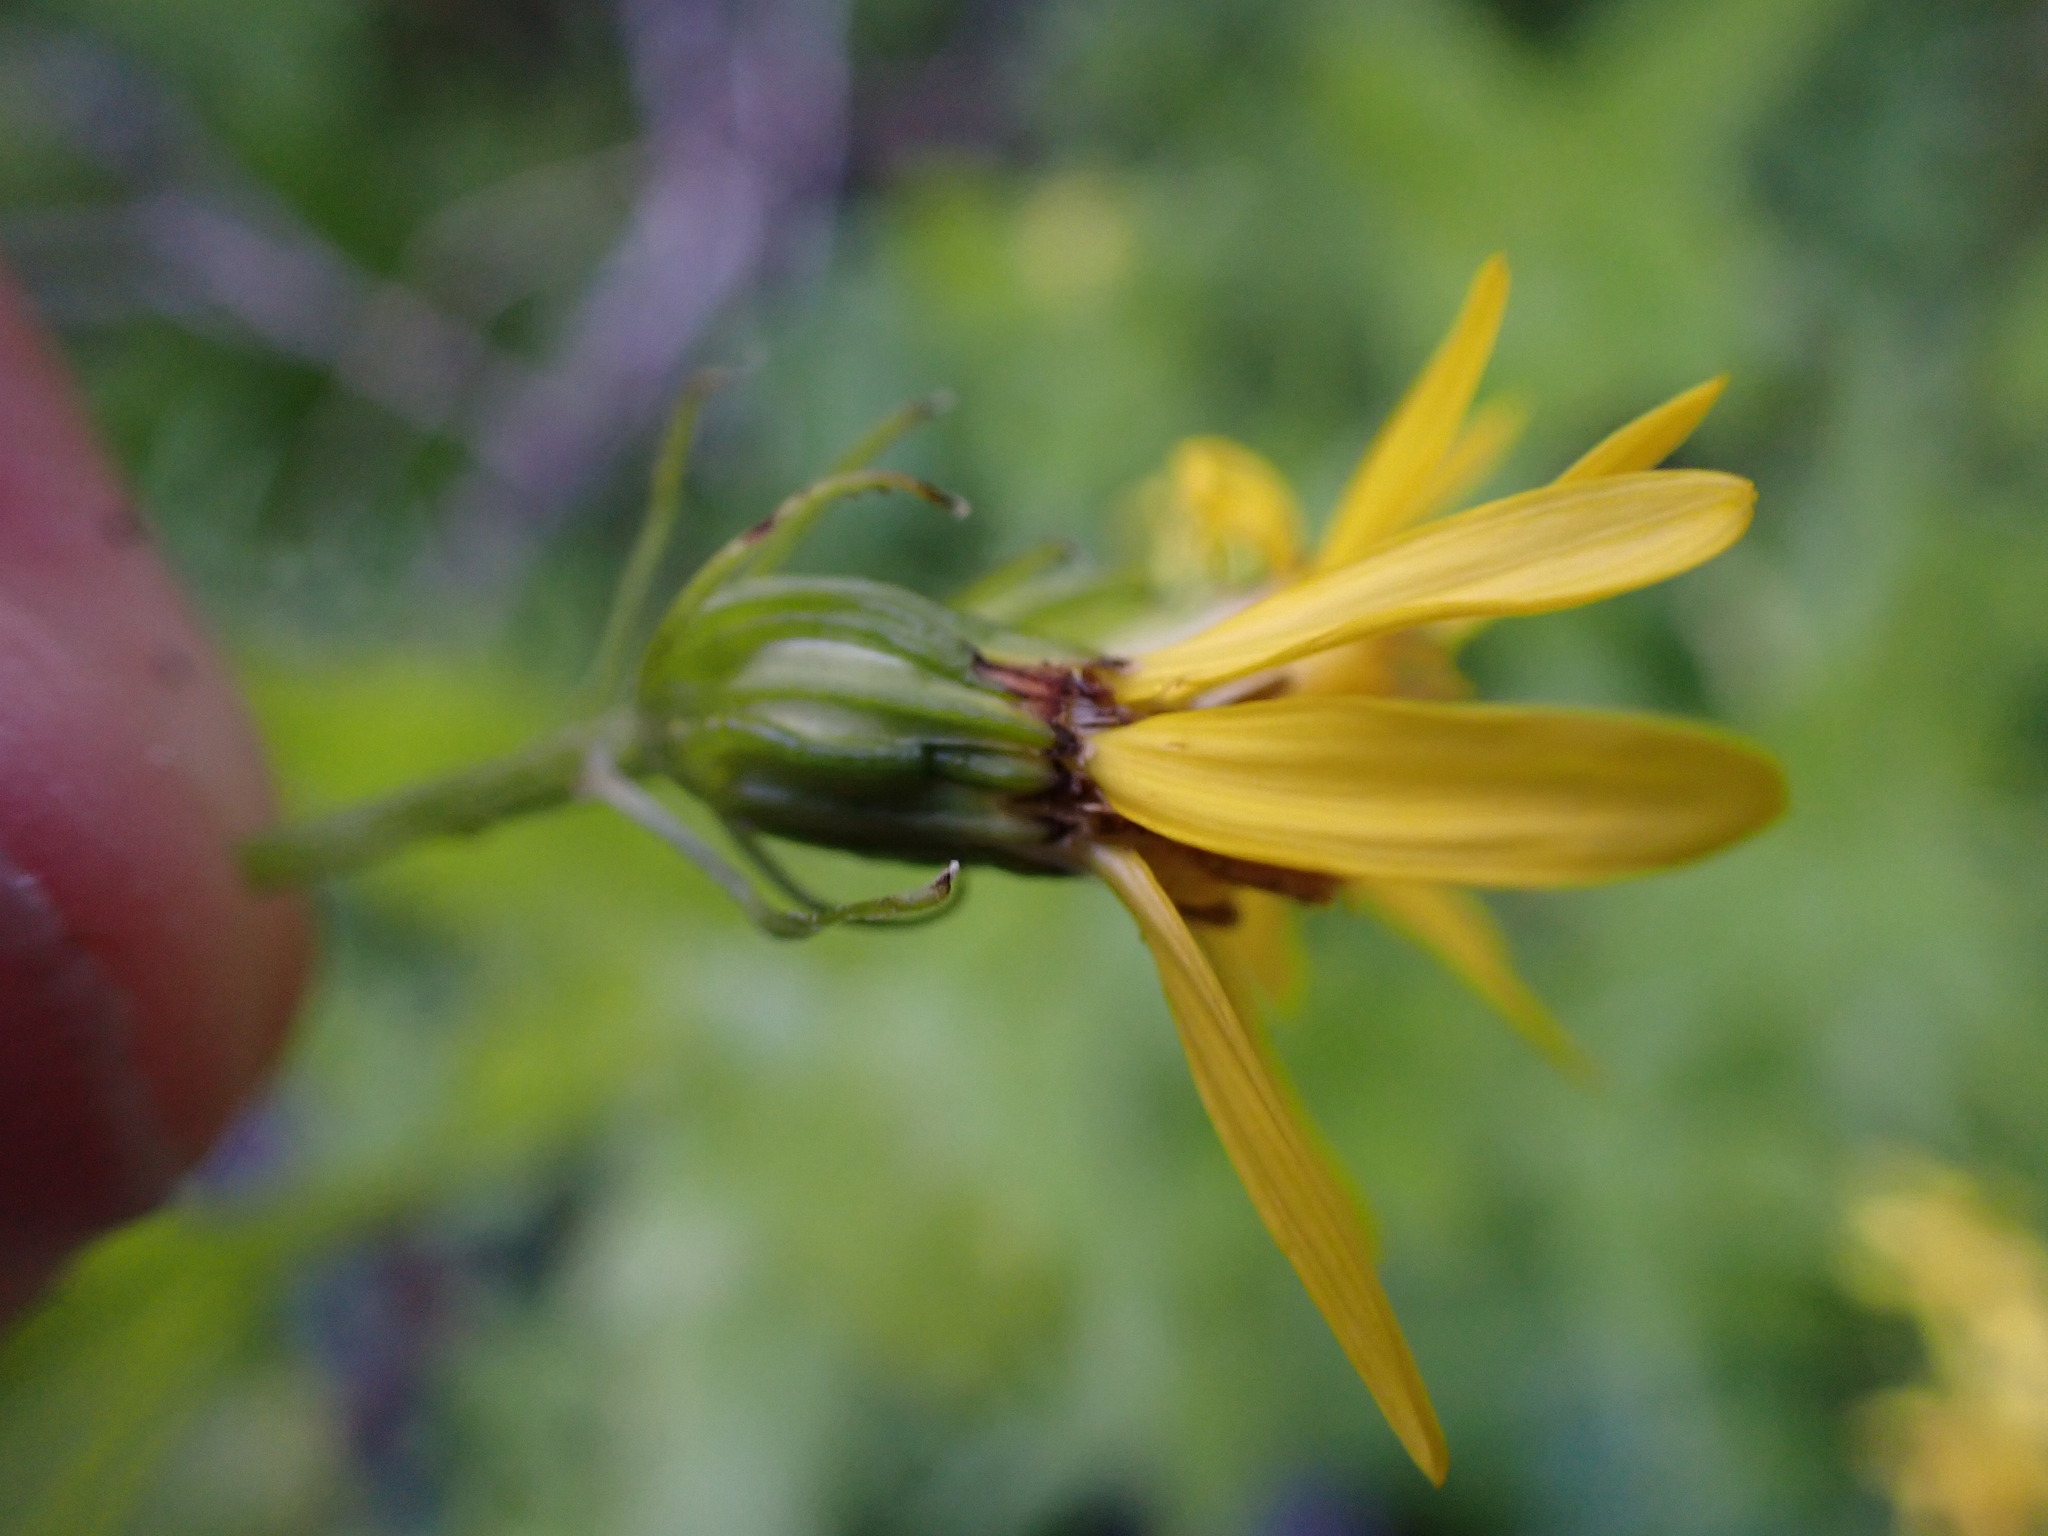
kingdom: Plantae
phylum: Tracheophyta
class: Magnoliopsida
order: Asterales
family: Asteraceae
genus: Senecio
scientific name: Senecio triangularis
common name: Arrowleaf butterweed
